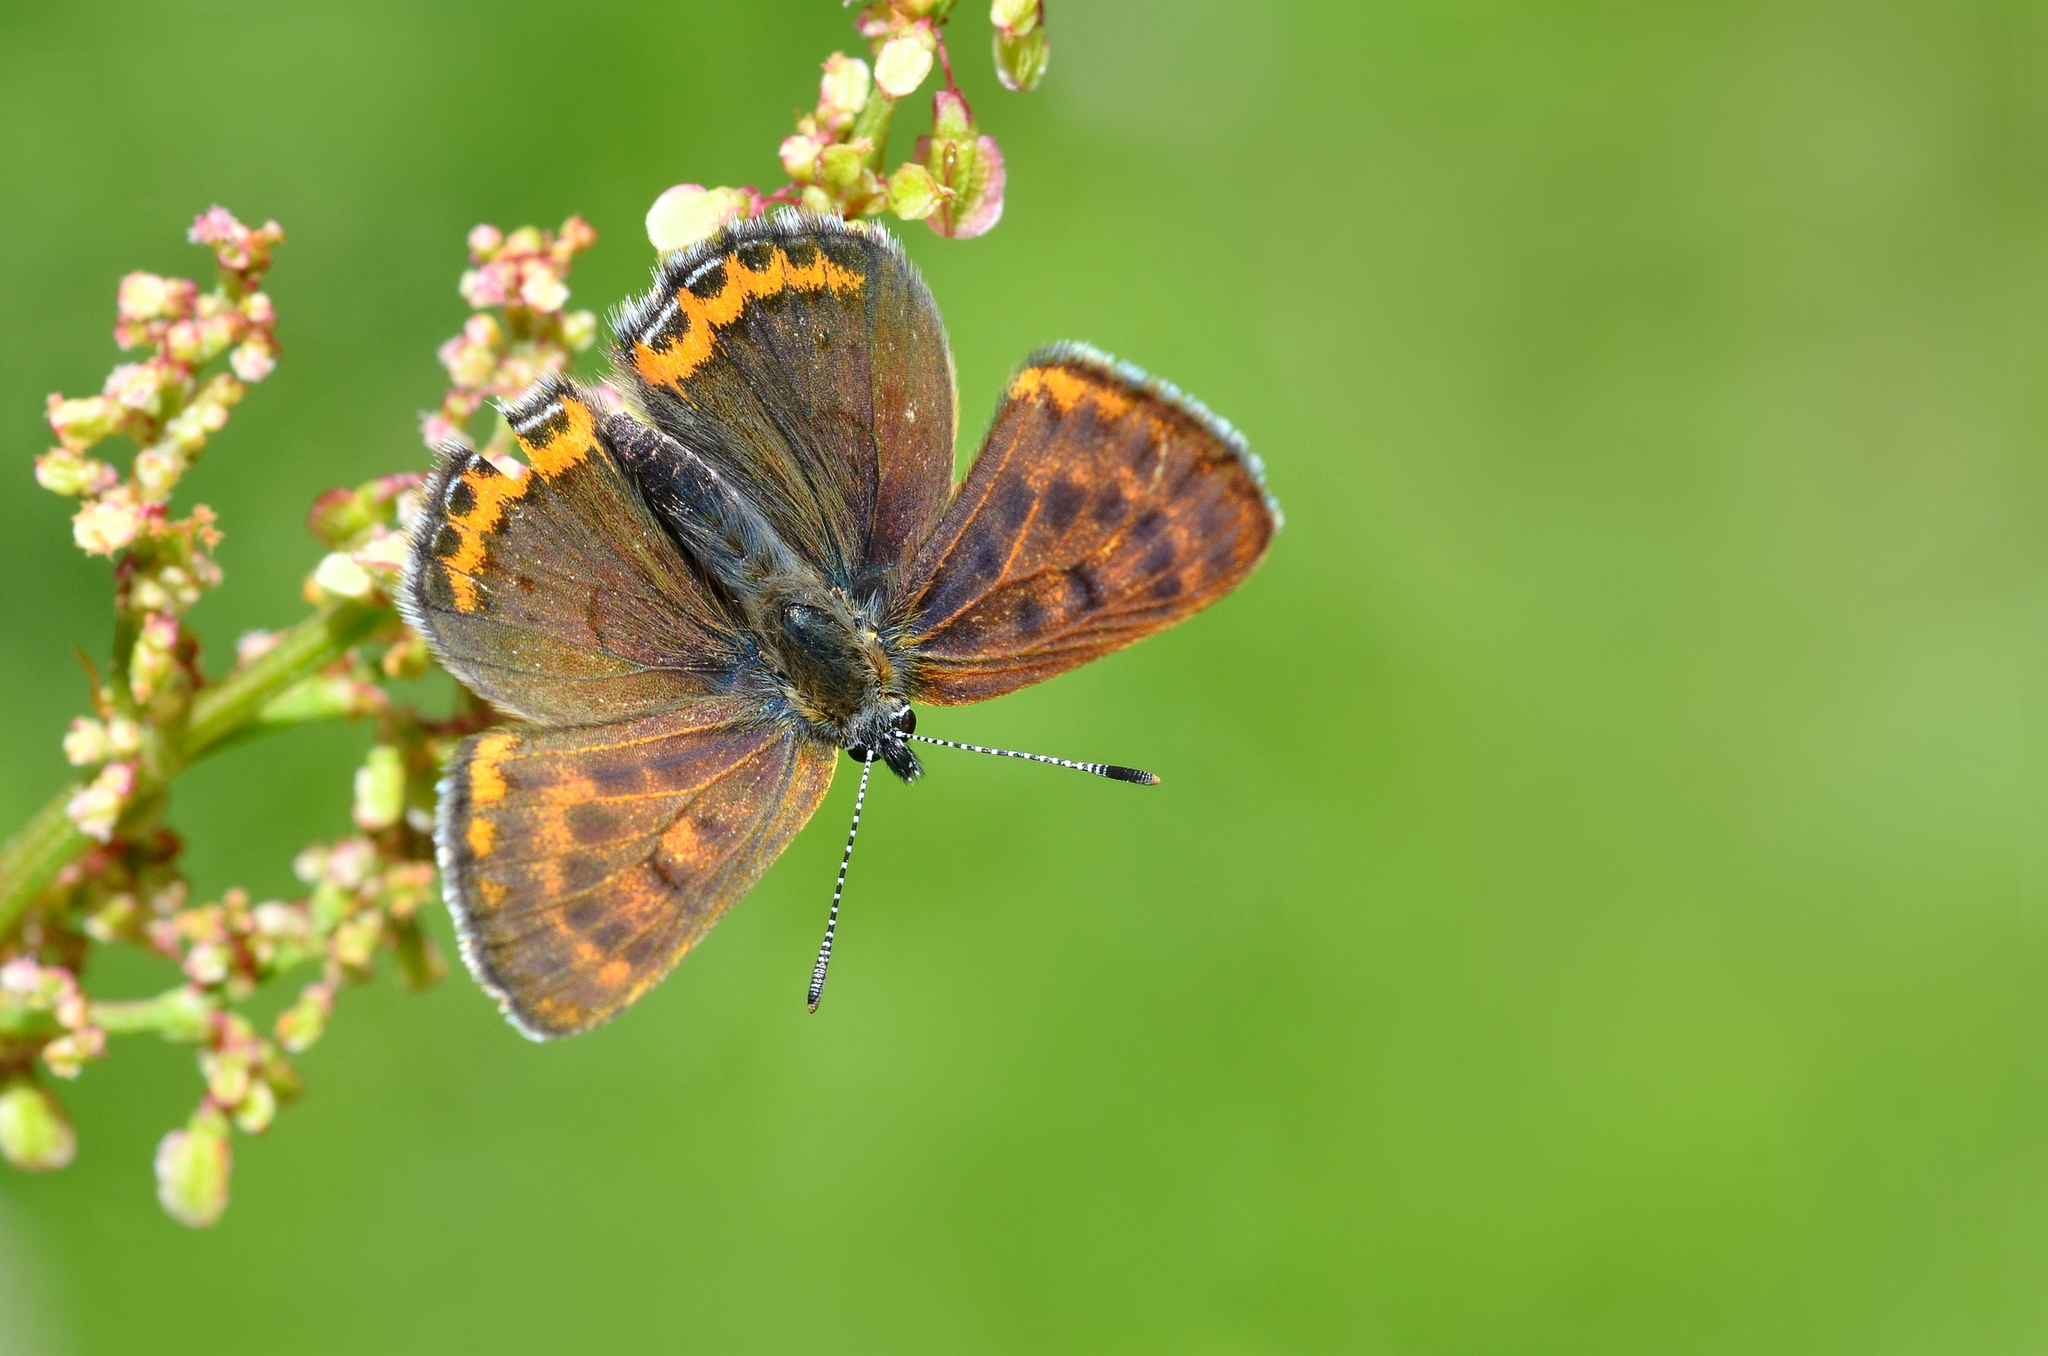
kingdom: Animalia
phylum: Arthropoda
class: Insecta
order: Lepidoptera
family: Lycaenidae
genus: Helleia
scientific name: Helleia helle
